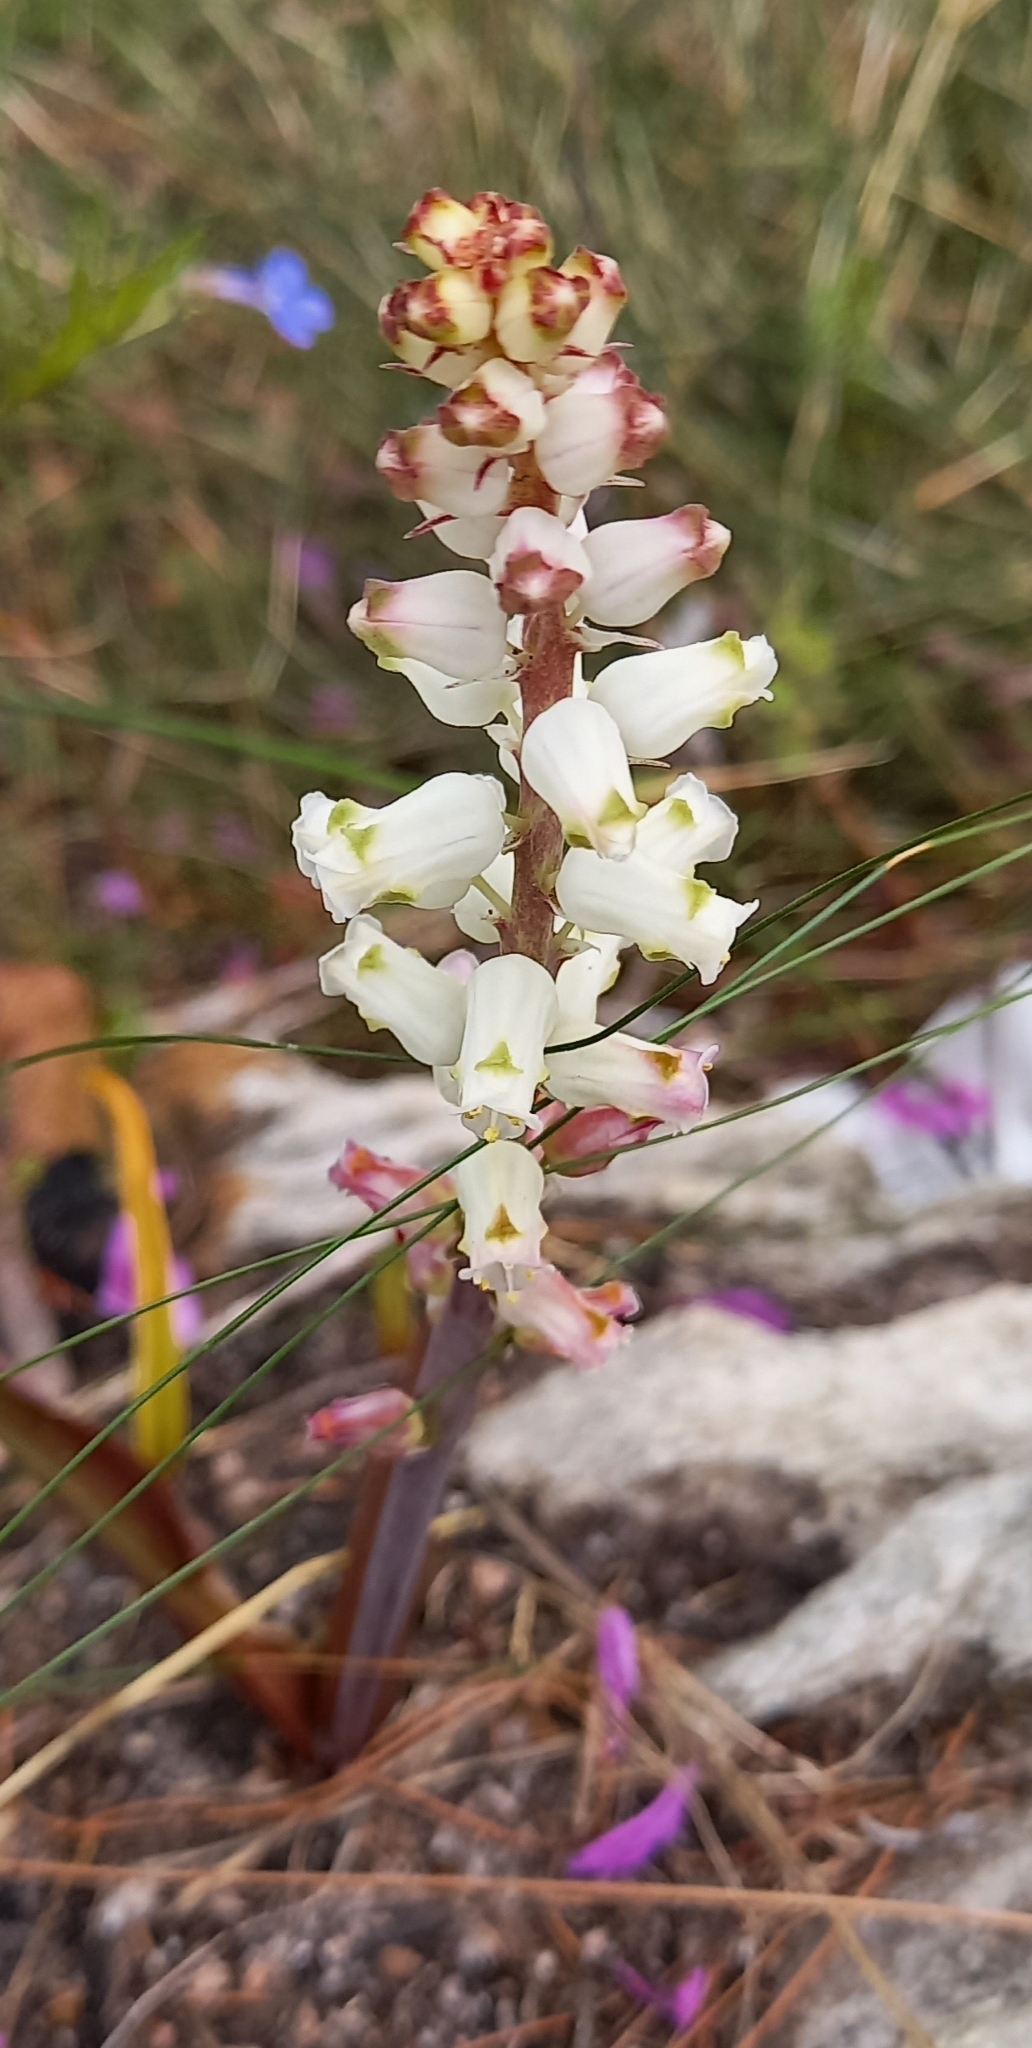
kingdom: Plantae
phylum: Tracheophyta
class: Liliopsida
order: Asparagales
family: Asparagaceae
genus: Lachenalia
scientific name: Lachenalia peersii
